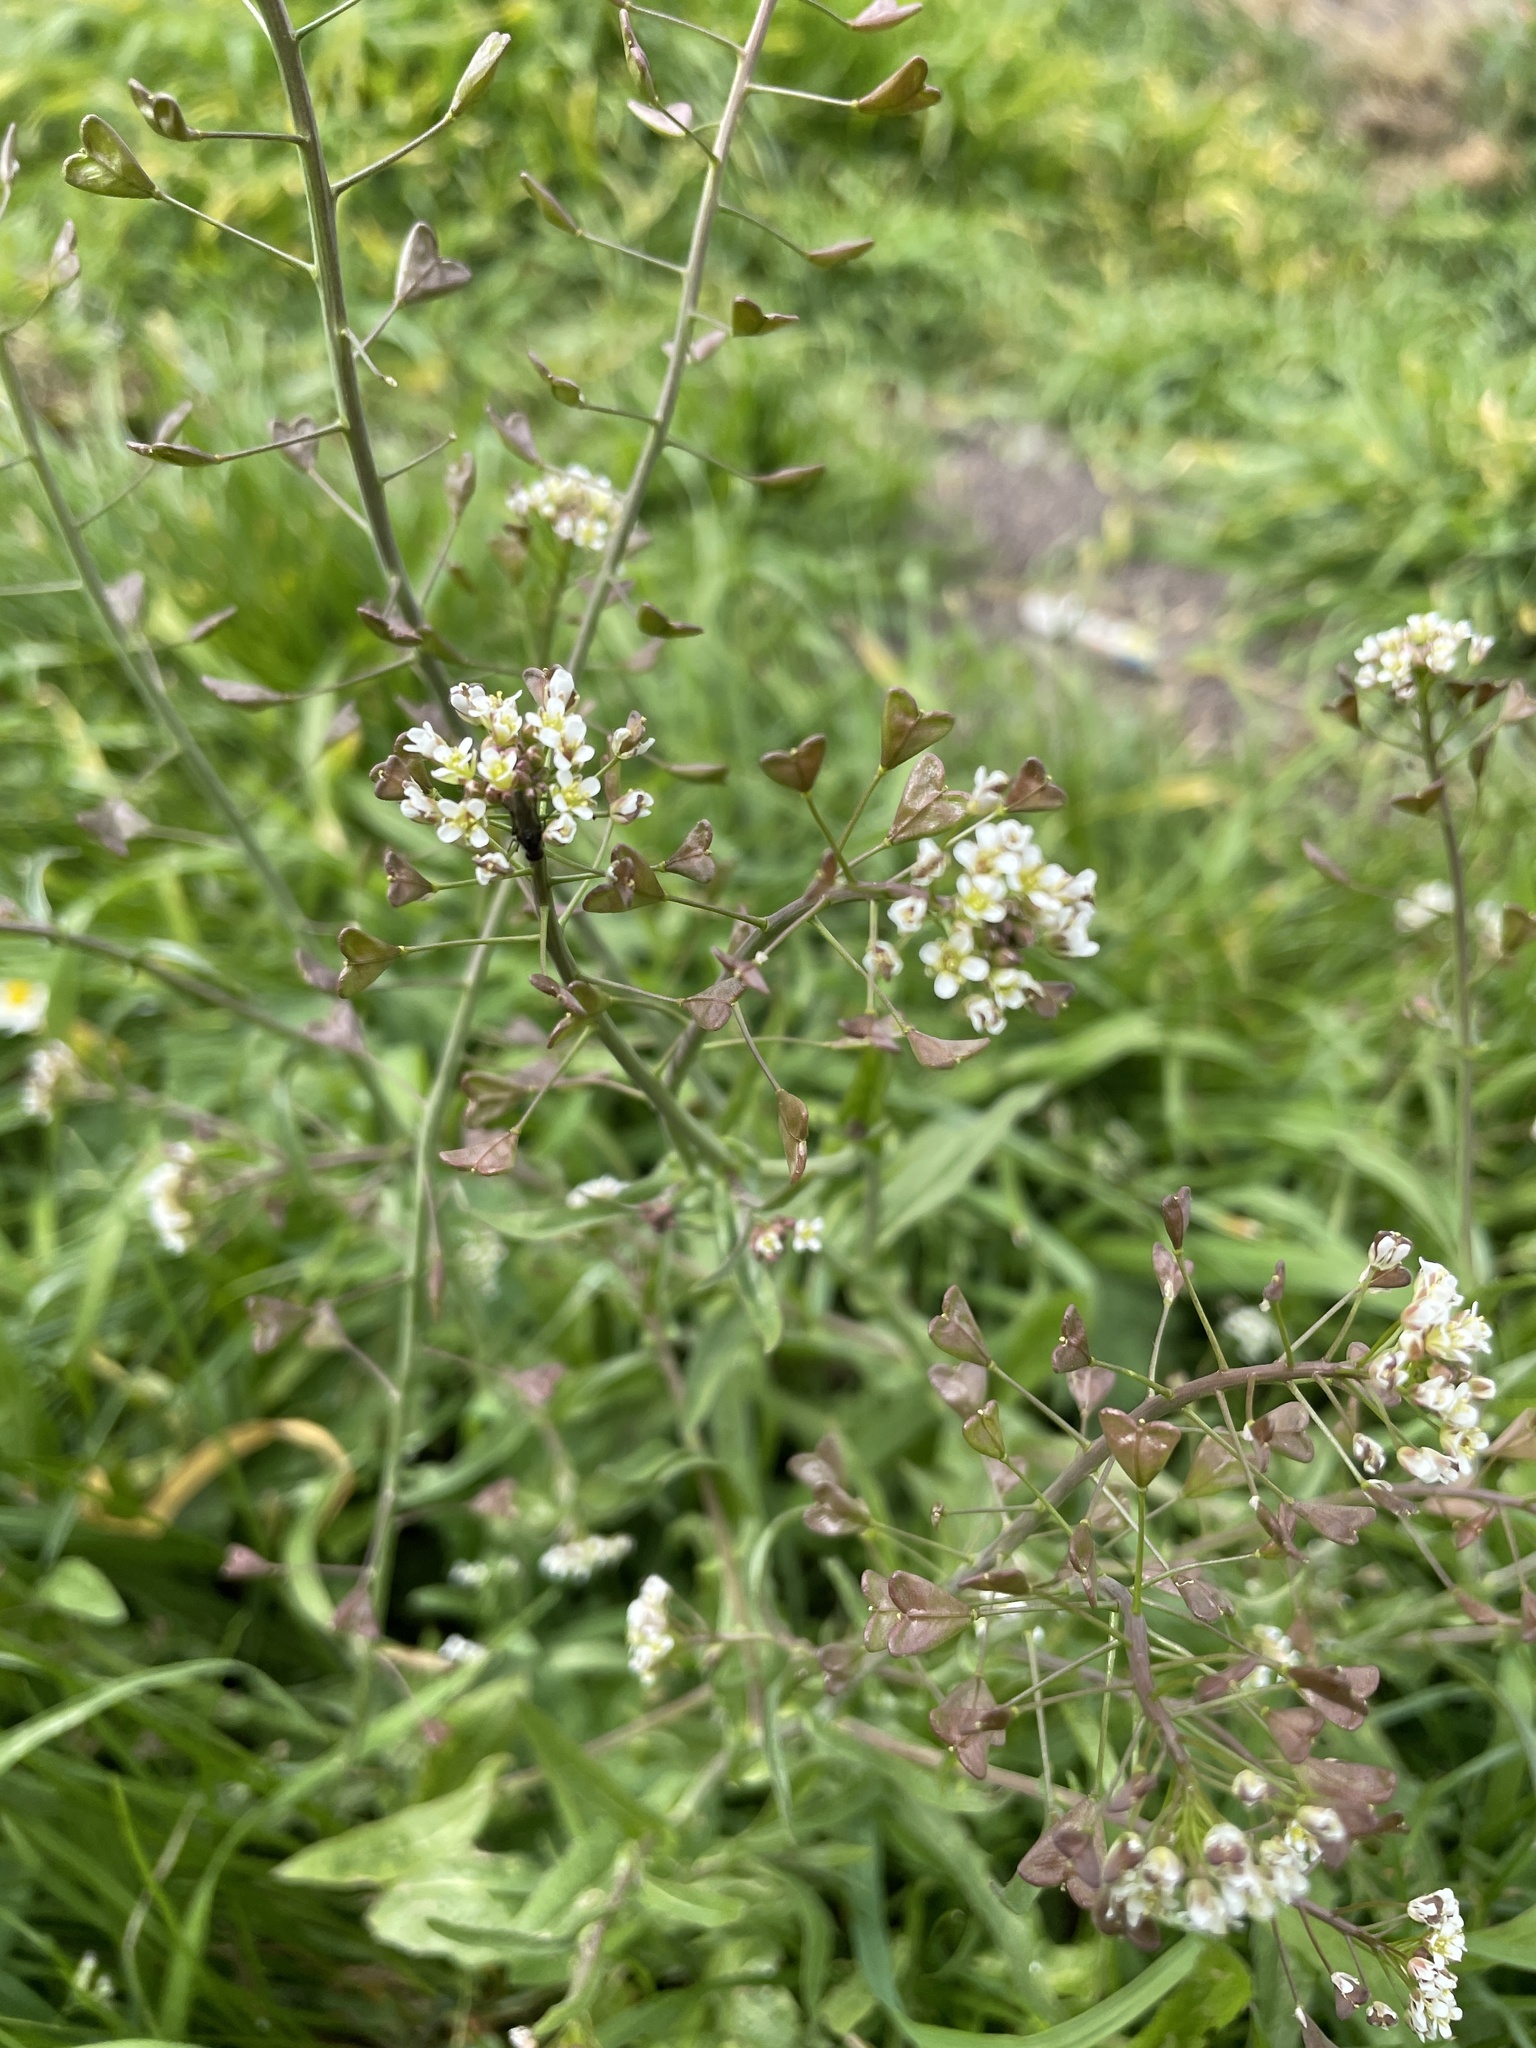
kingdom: Plantae
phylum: Tracheophyta
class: Magnoliopsida
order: Brassicales
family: Brassicaceae
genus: Capsella
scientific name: Capsella bursa-pastoris
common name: Shepherd's purse
